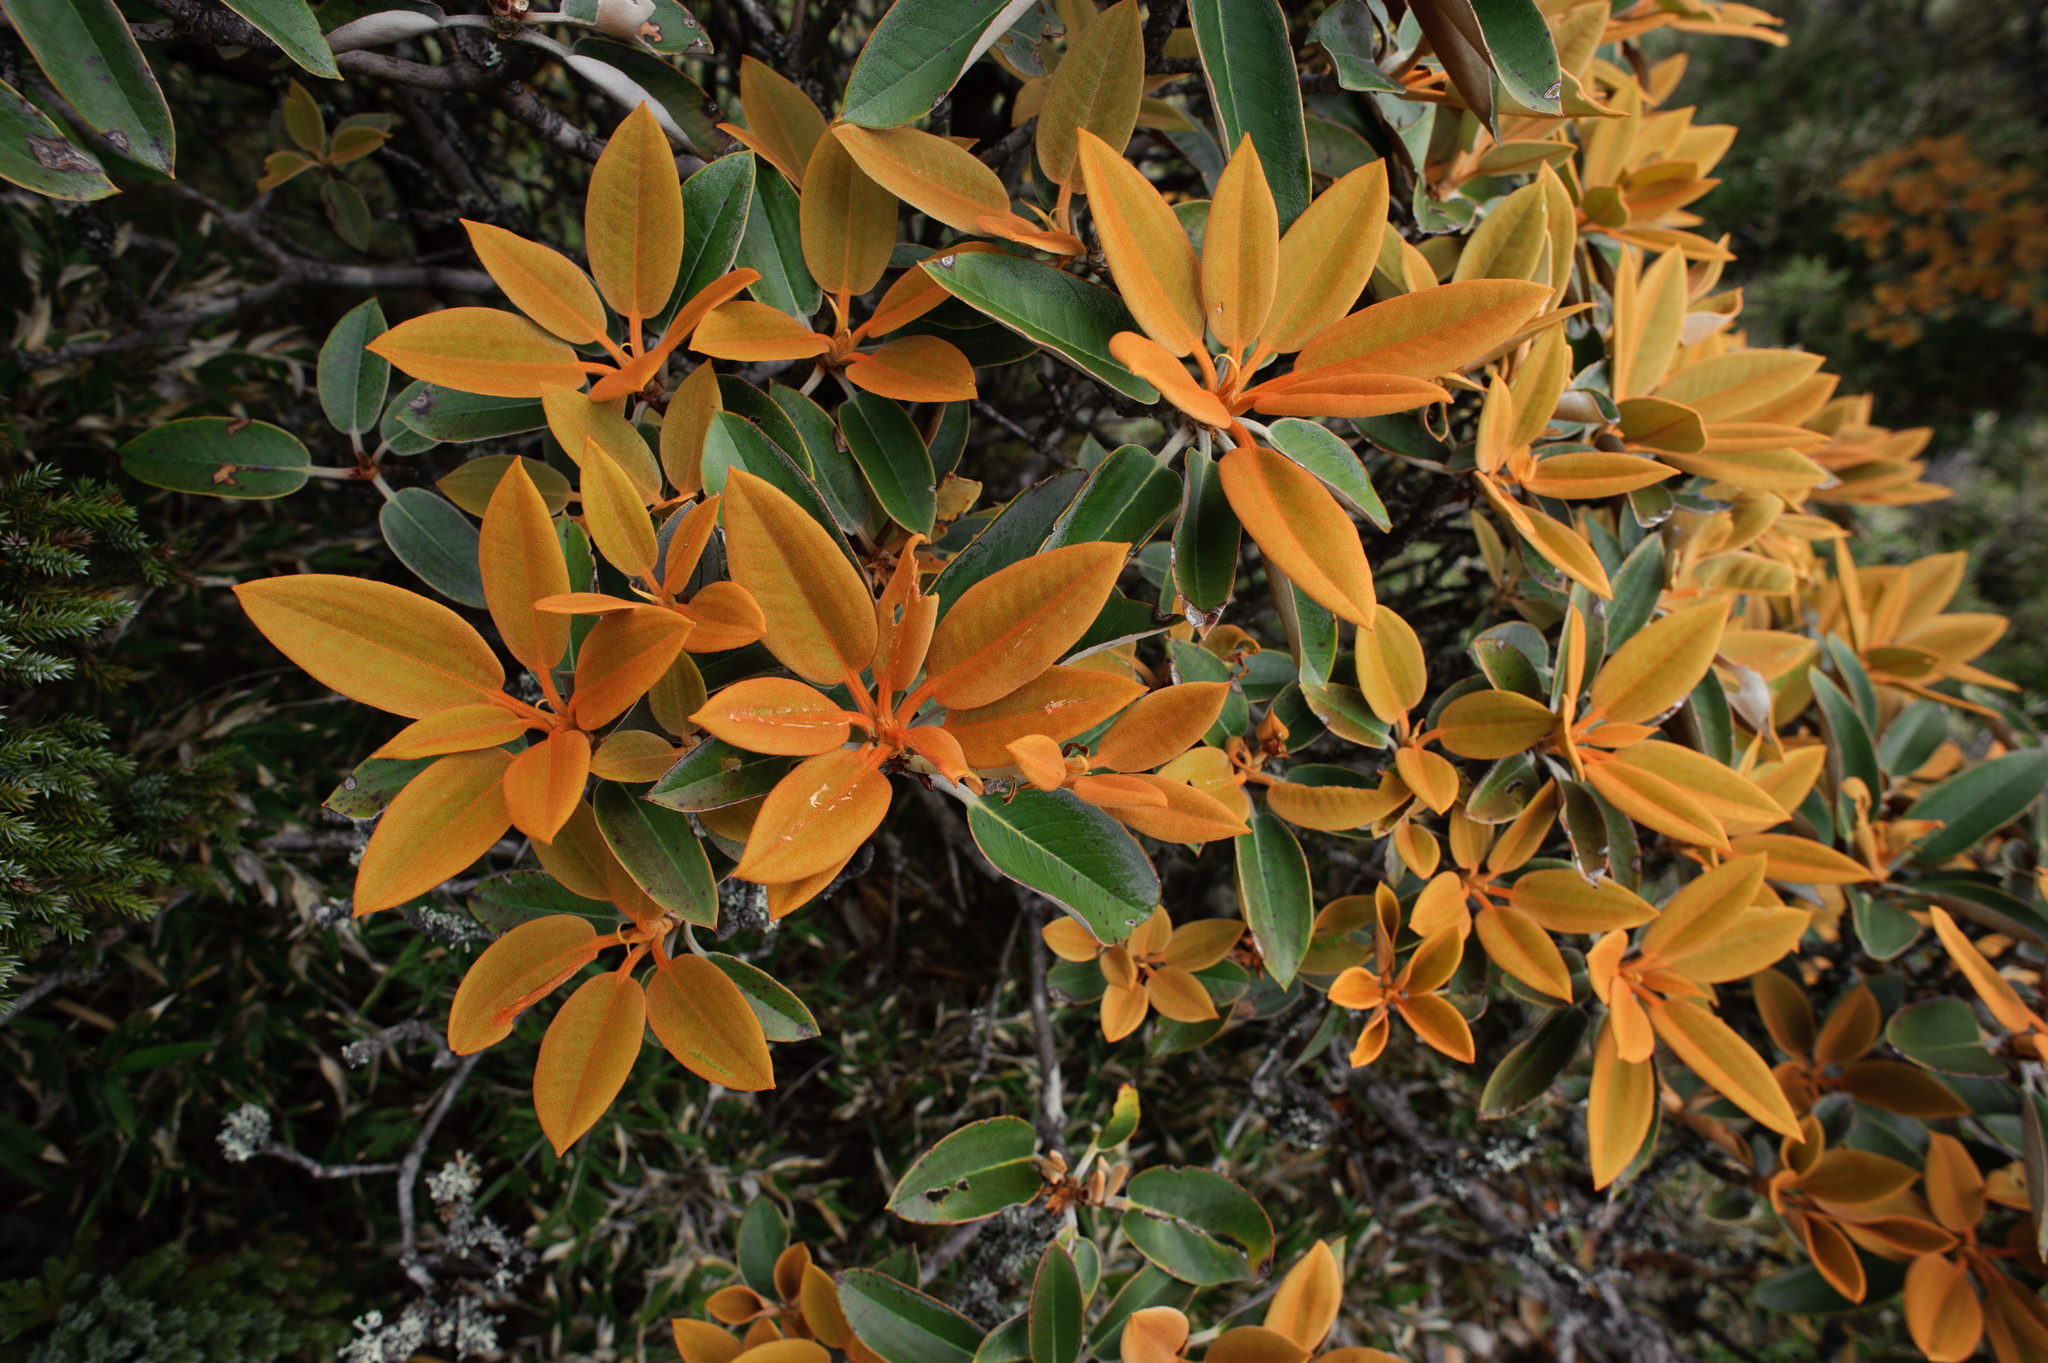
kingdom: Plantae
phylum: Tracheophyta
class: Magnoliopsida
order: Ericales
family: Ericaceae
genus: Rhododendron
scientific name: Rhododendron hyperythrum
